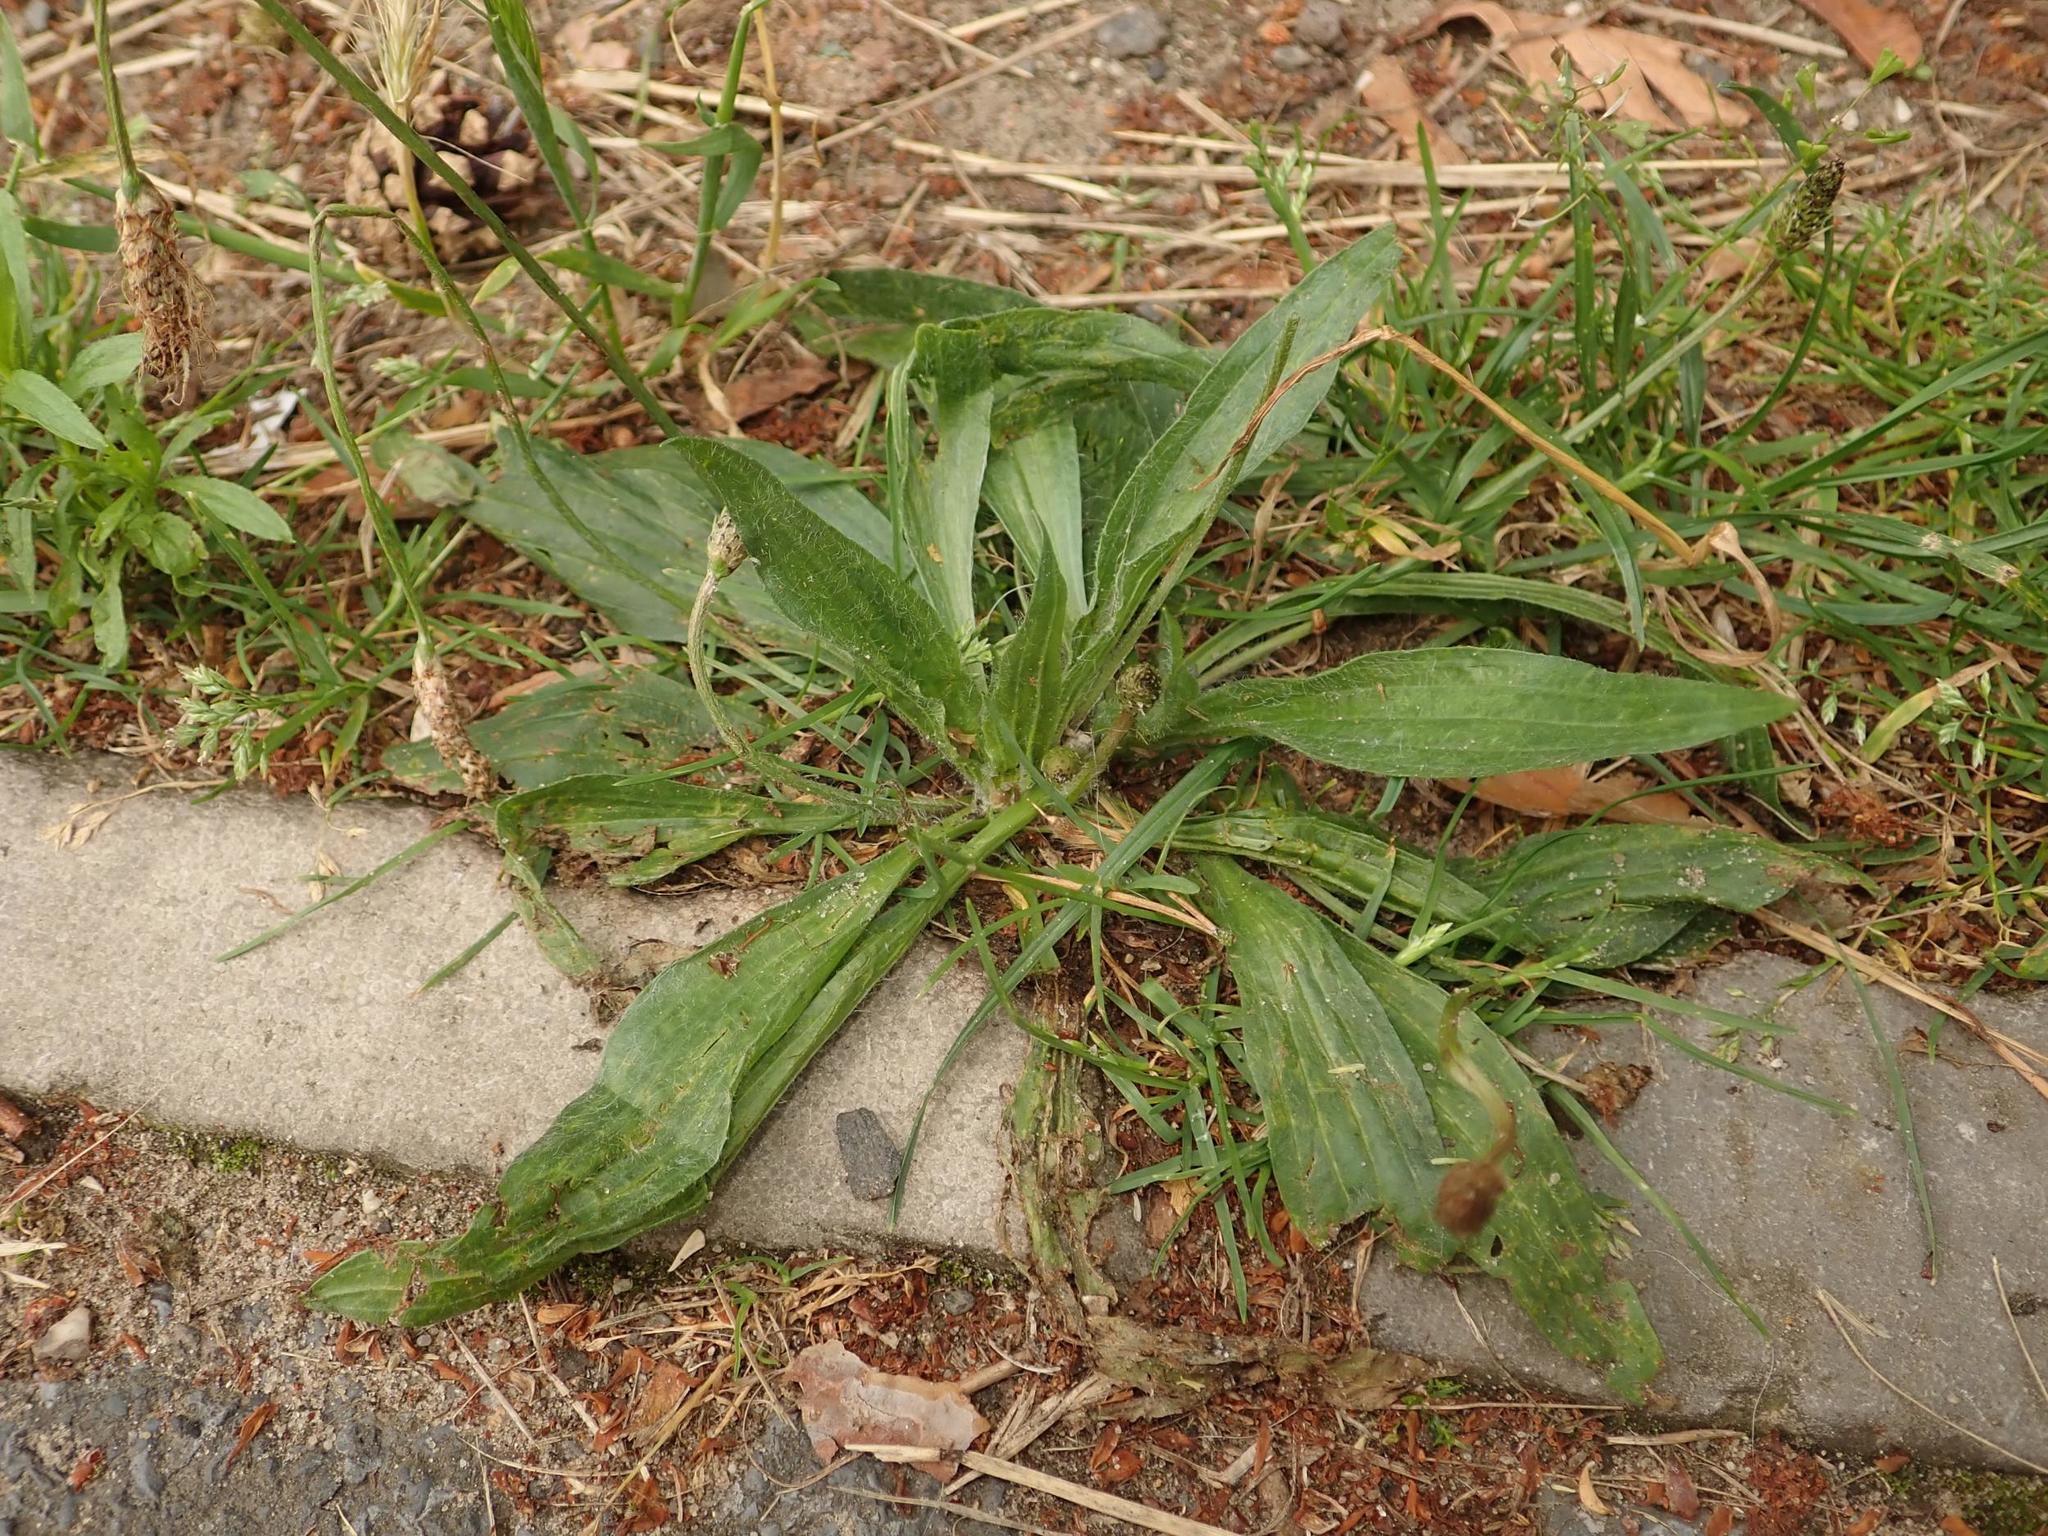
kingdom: Plantae
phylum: Tracheophyta
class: Magnoliopsida
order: Lamiales
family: Plantaginaceae
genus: Plantago
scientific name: Plantago lanceolata
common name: Ribwort plantain
